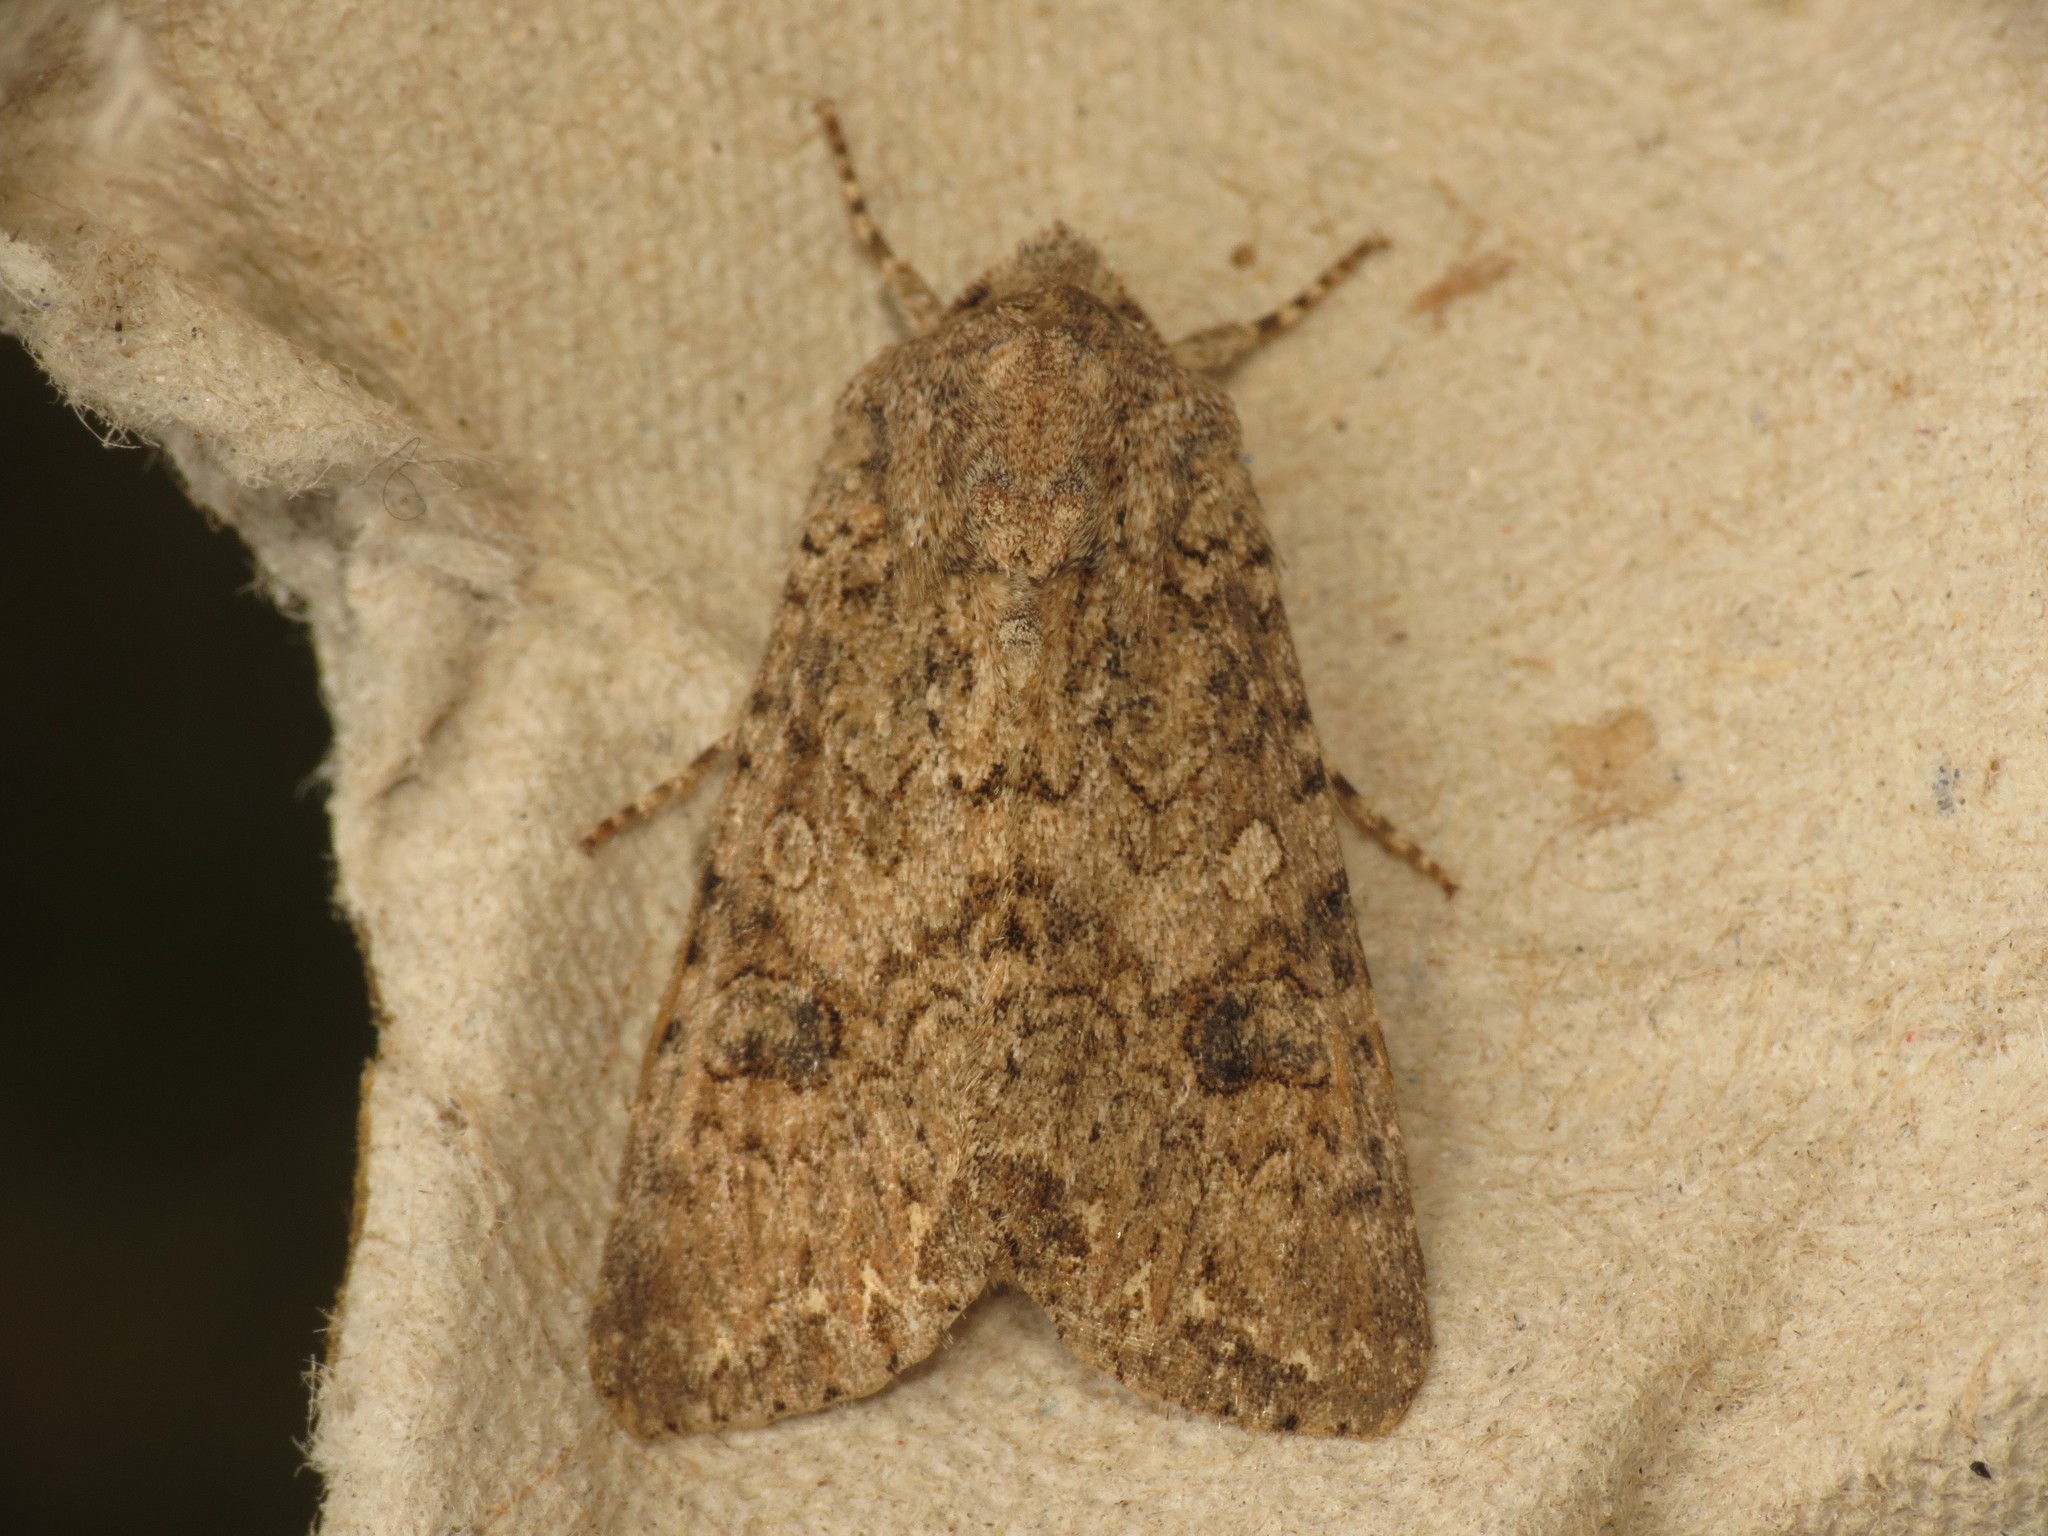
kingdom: Animalia
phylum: Arthropoda
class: Insecta
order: Lepidoptera
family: Noctuidae
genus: Anarta
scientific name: Anarta trifolii
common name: Clover cutworm moth
